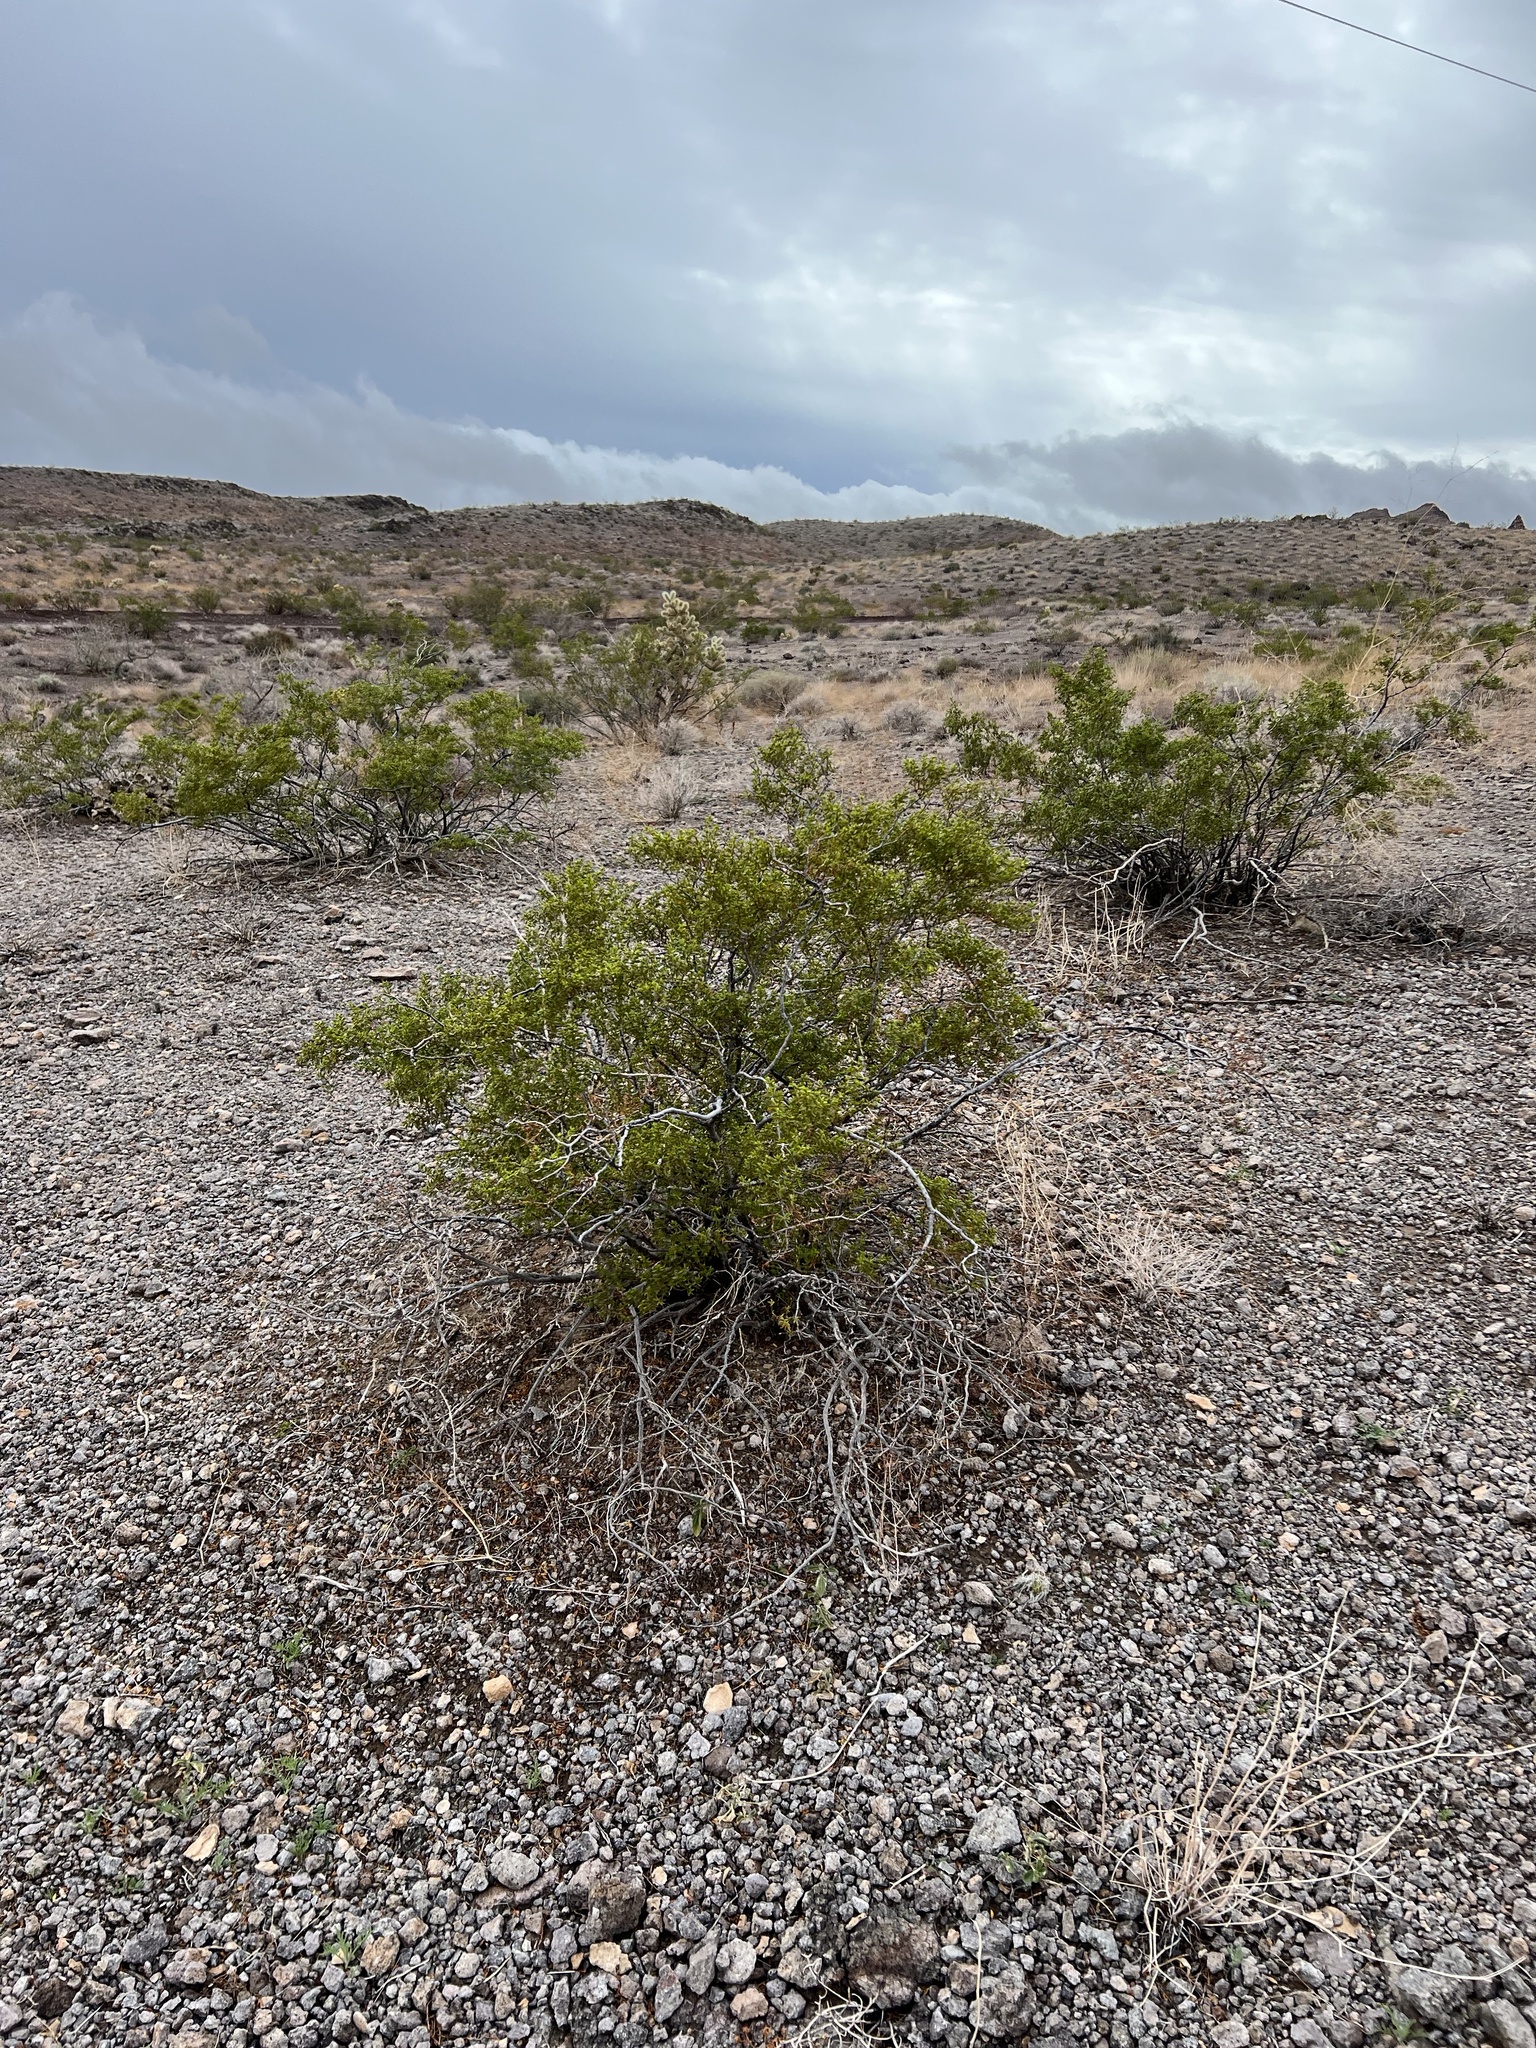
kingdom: Plantae
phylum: Tracheophyta
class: Magnoliopsida
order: Zygophyllales
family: Zygophyllaceae
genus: Larrea
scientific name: Larrea tridentata
